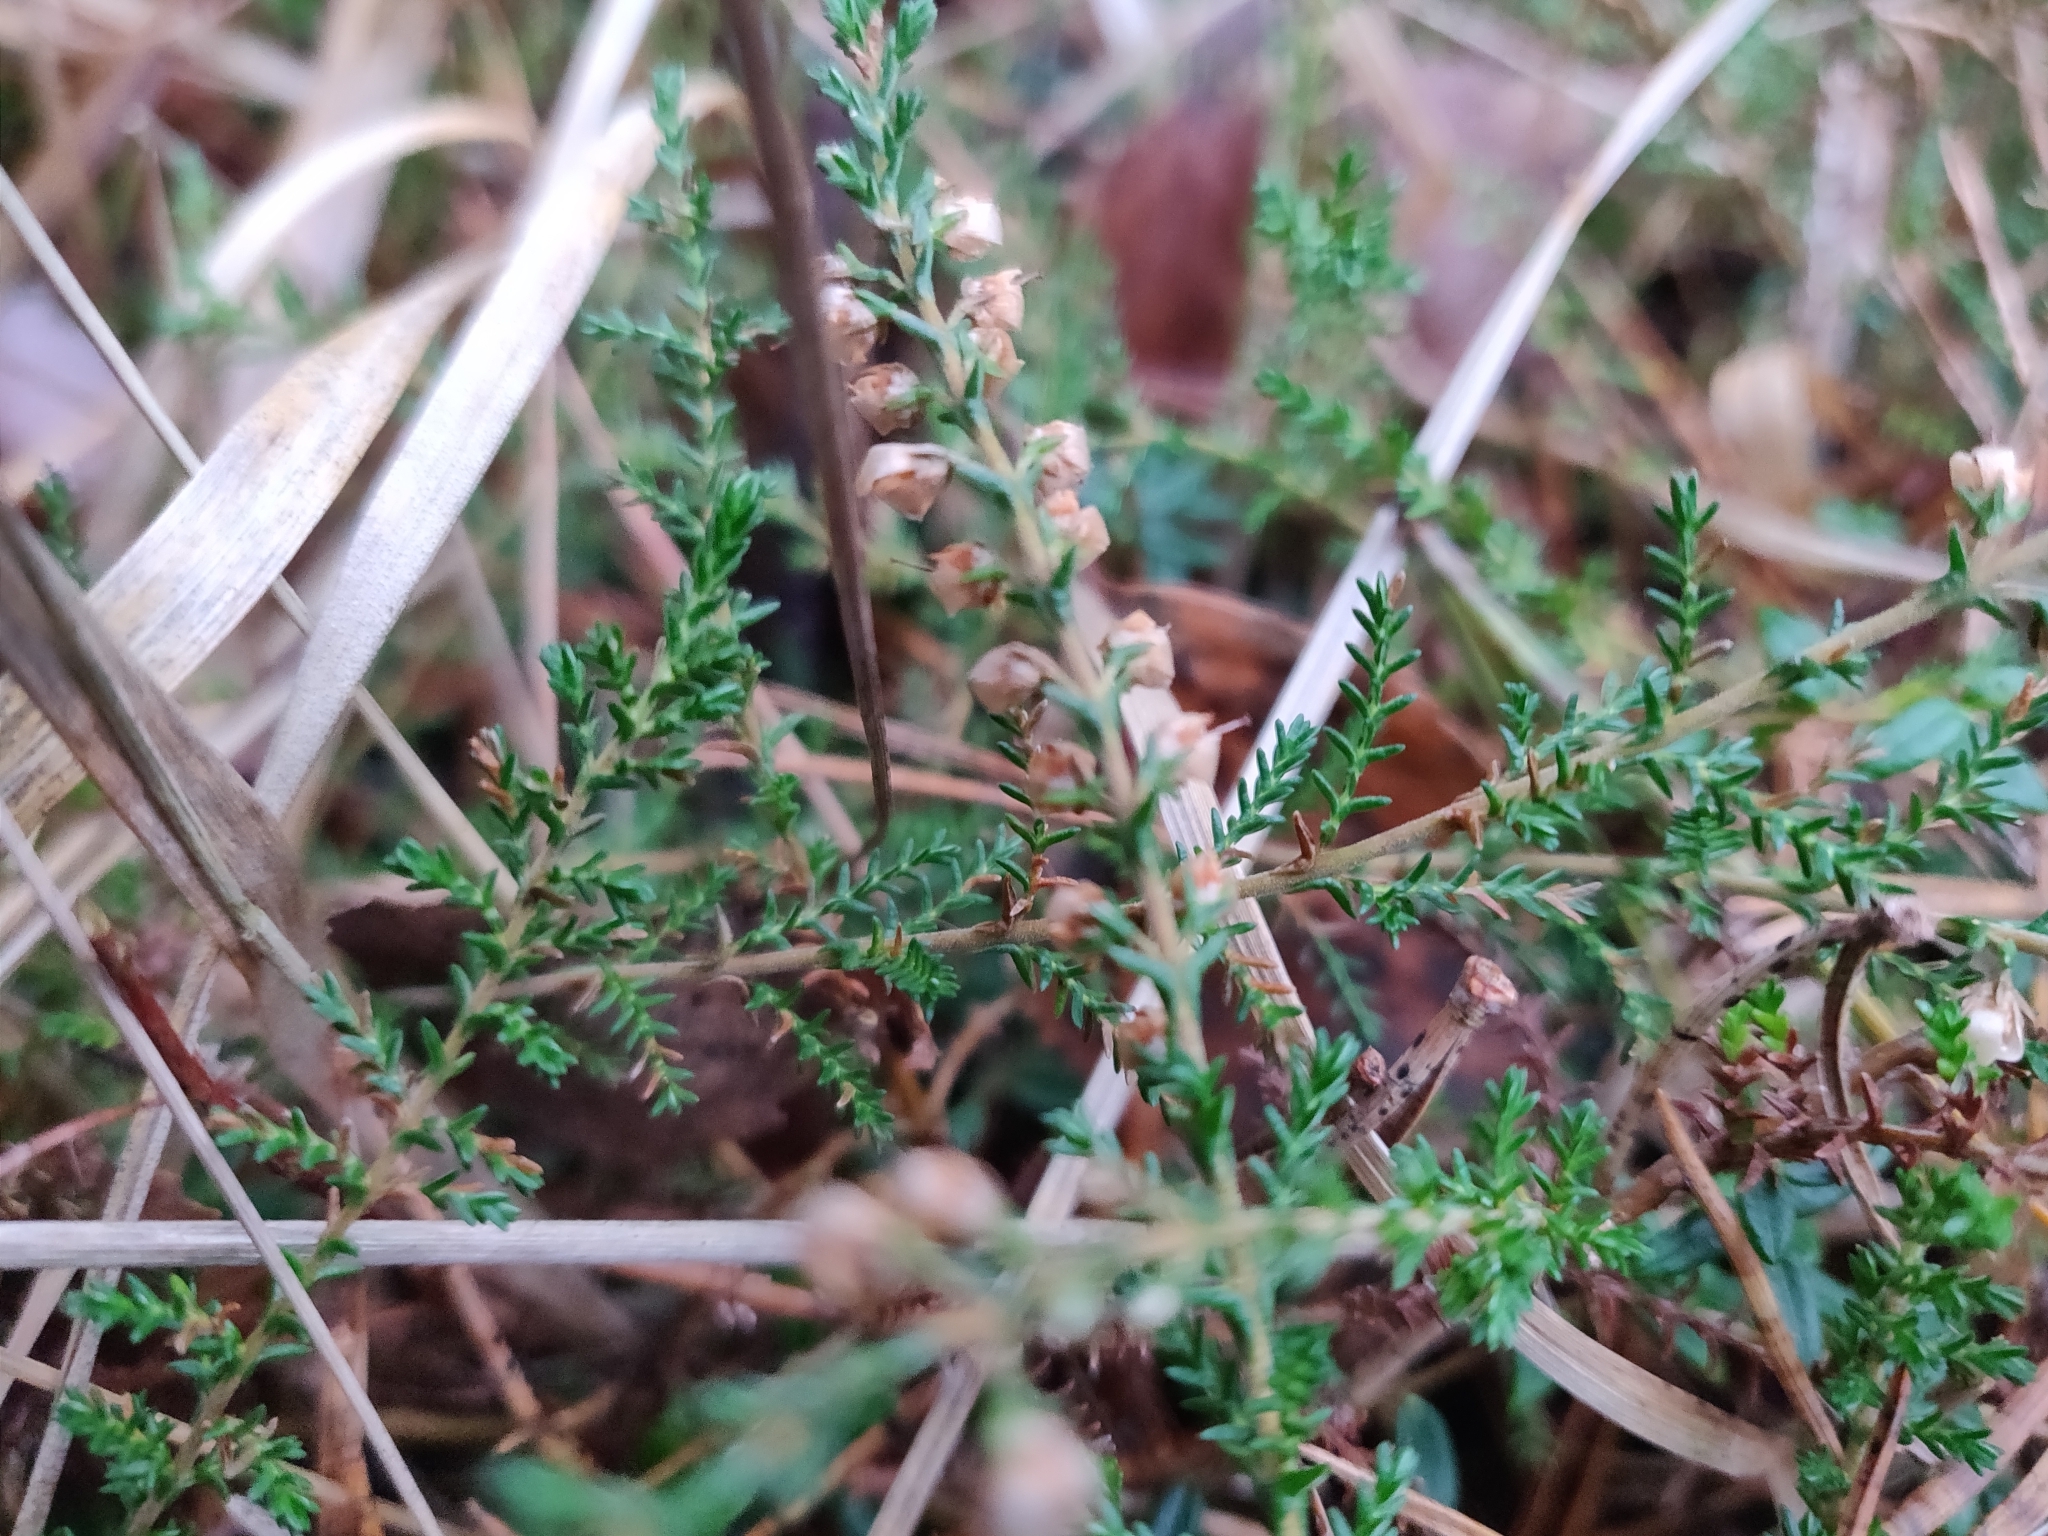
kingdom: Plantae
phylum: Tracheophyta
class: Magnoliopsida
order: Ericales
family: Ericaceae
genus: Calluna
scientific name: Calluna vulgaris
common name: Heather
